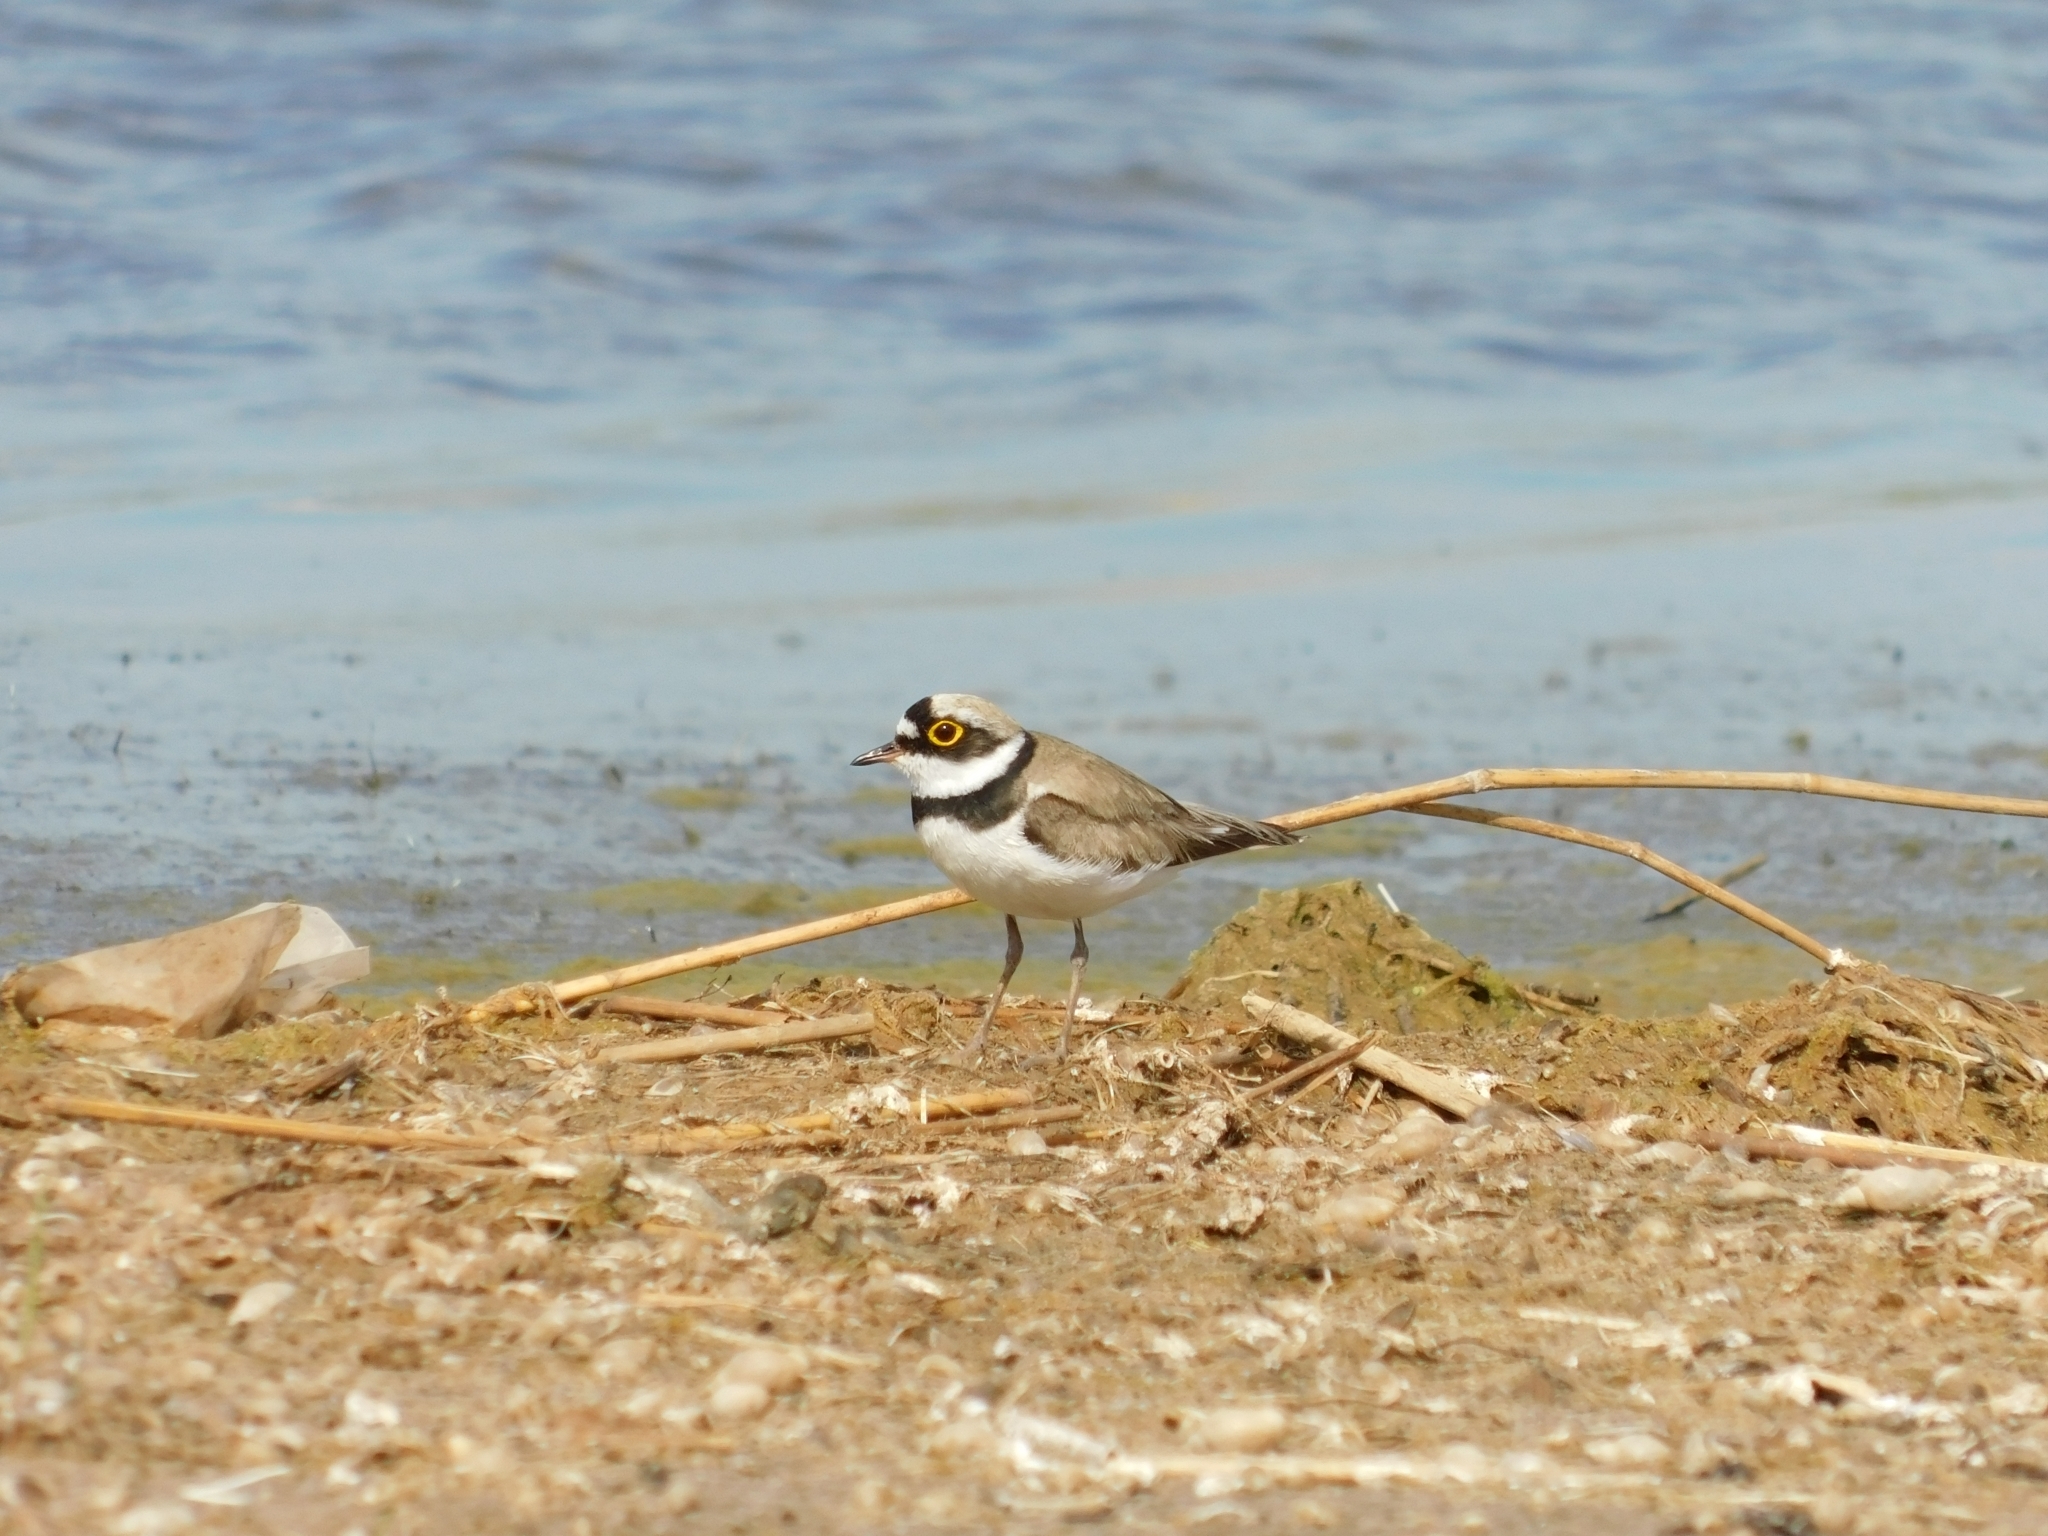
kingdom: Animalia
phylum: Chordata
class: Aves
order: Charadriiformes
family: Charadriidae
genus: Charadrius
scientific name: Charadrius dubius
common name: Little ringed plover
